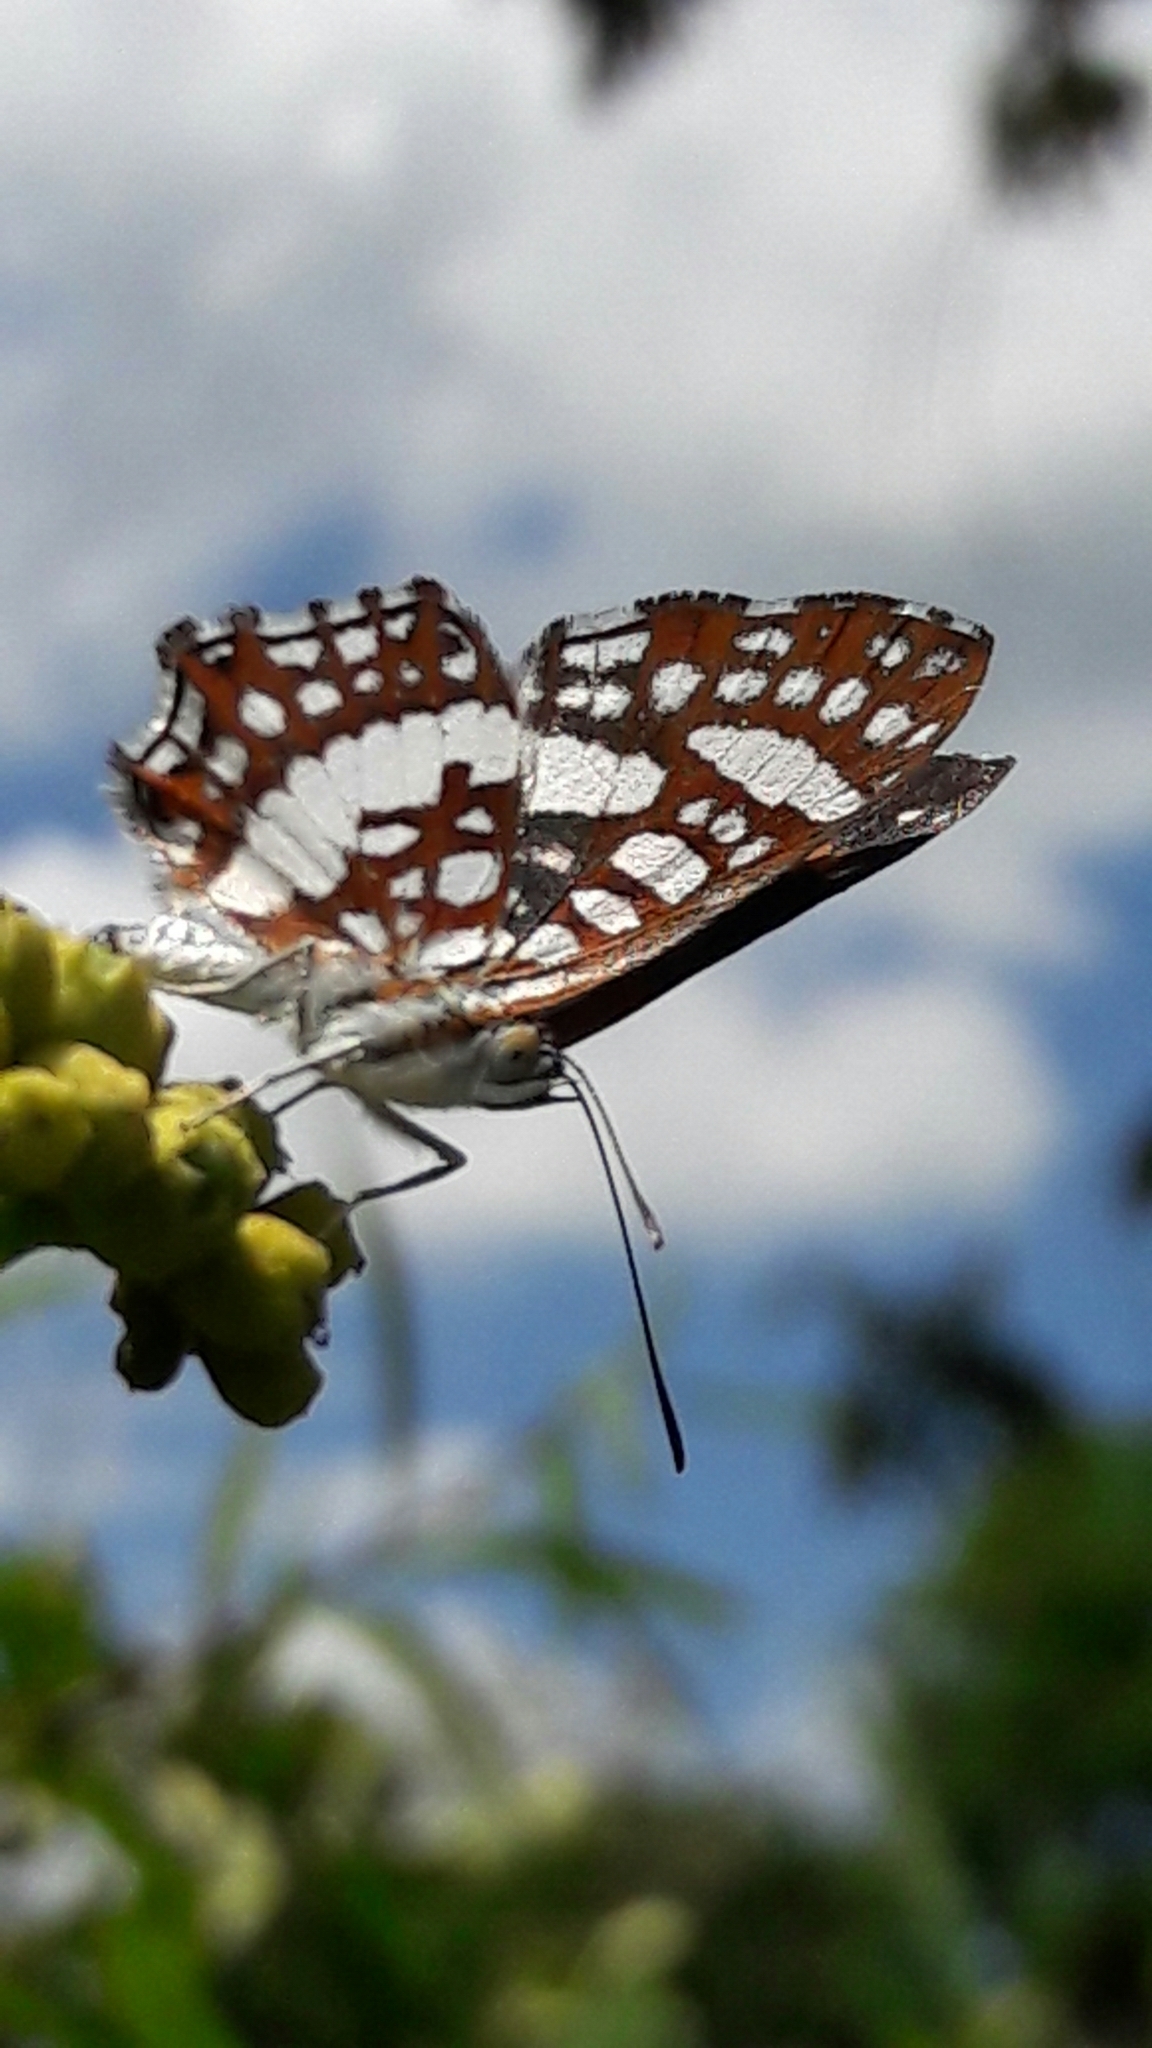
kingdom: Animalia
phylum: Arthropoda
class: Insecta
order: Lepidoptera
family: Riodinidae
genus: Ariconias
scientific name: Ariconias glaphyra
